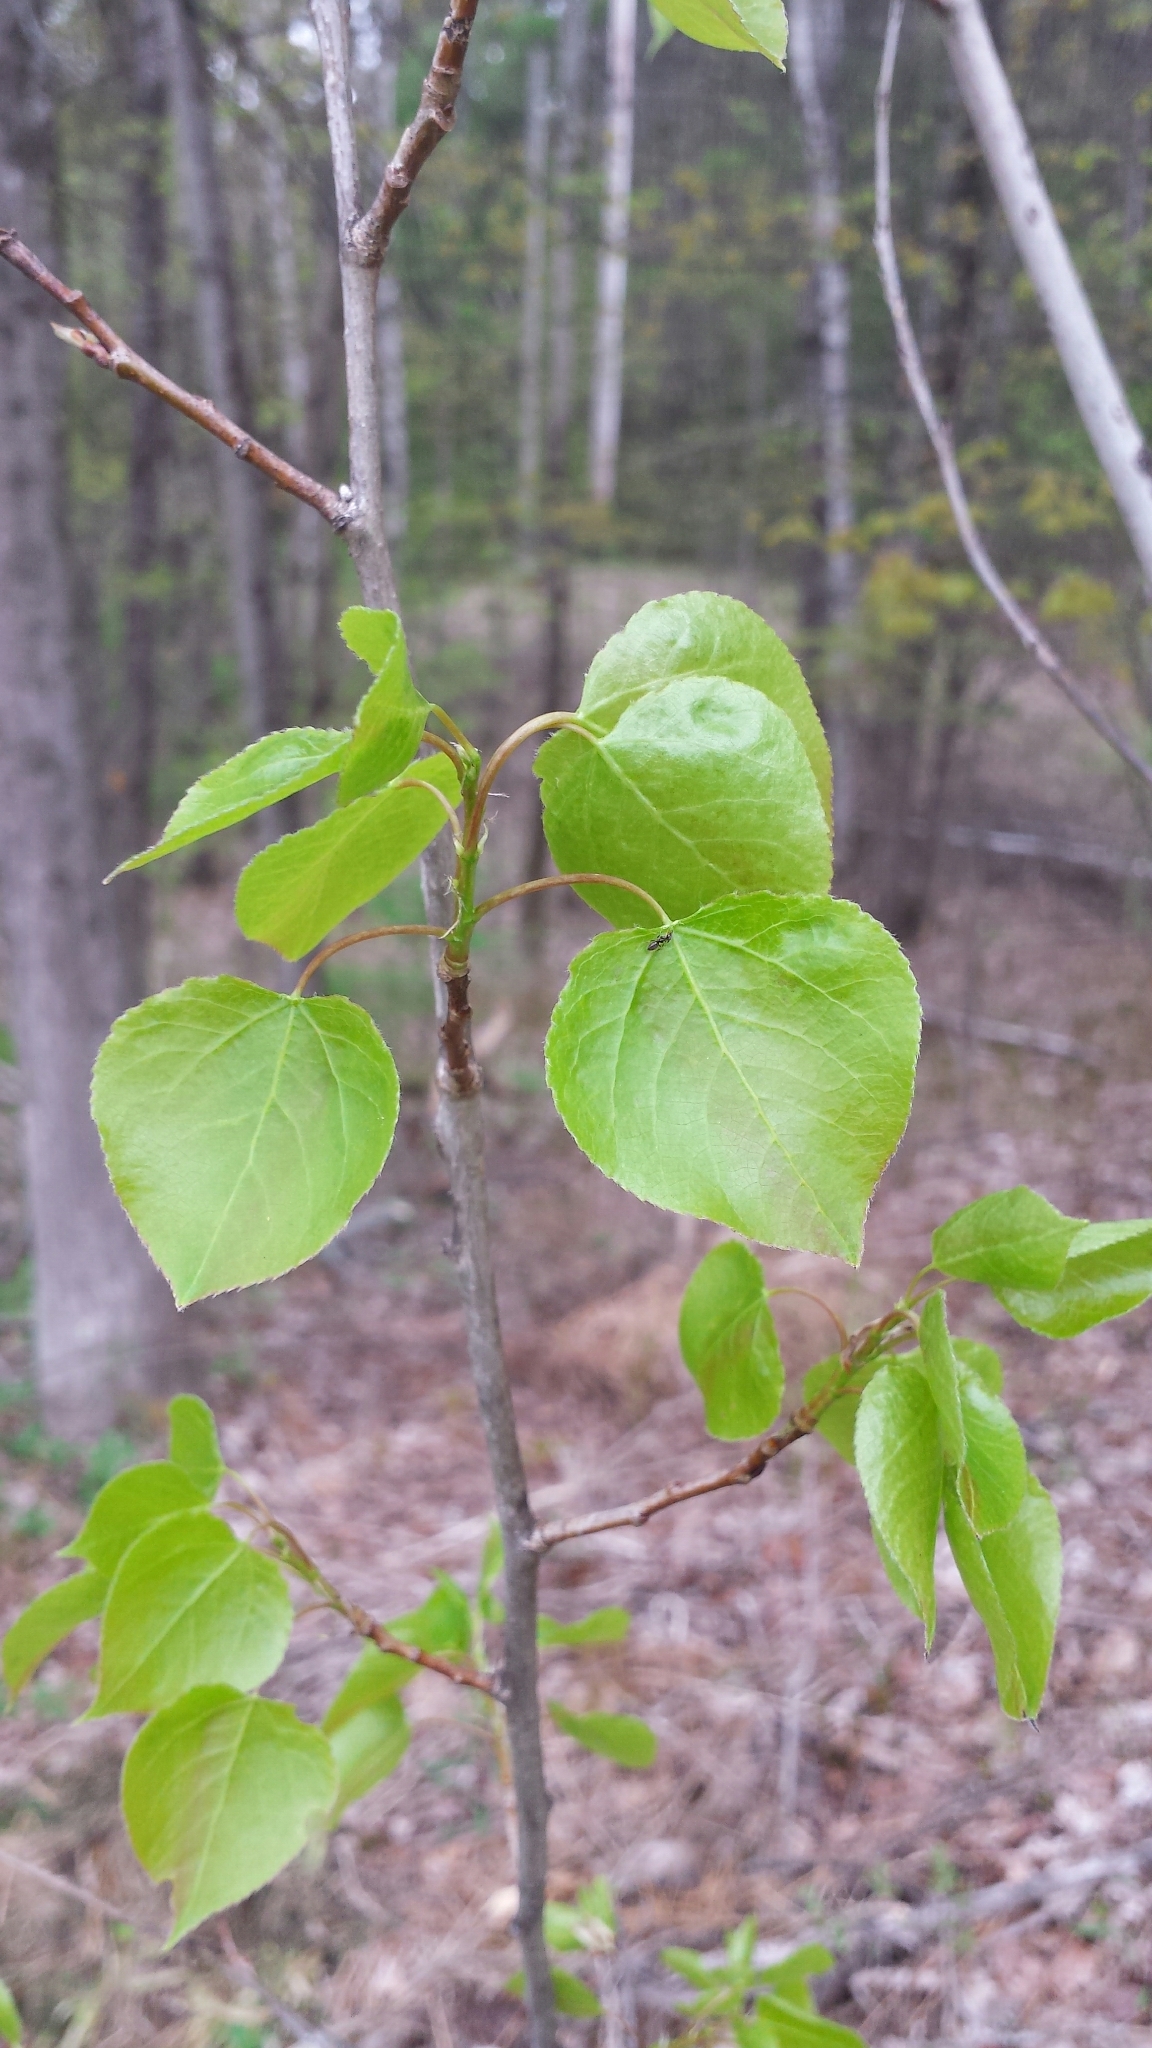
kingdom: Plantae
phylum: Tracheophyta
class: Magnoliopsida
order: Malpighiales
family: Salicaceae
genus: Populus
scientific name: Populus tremuloides
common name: Quaking aspen
